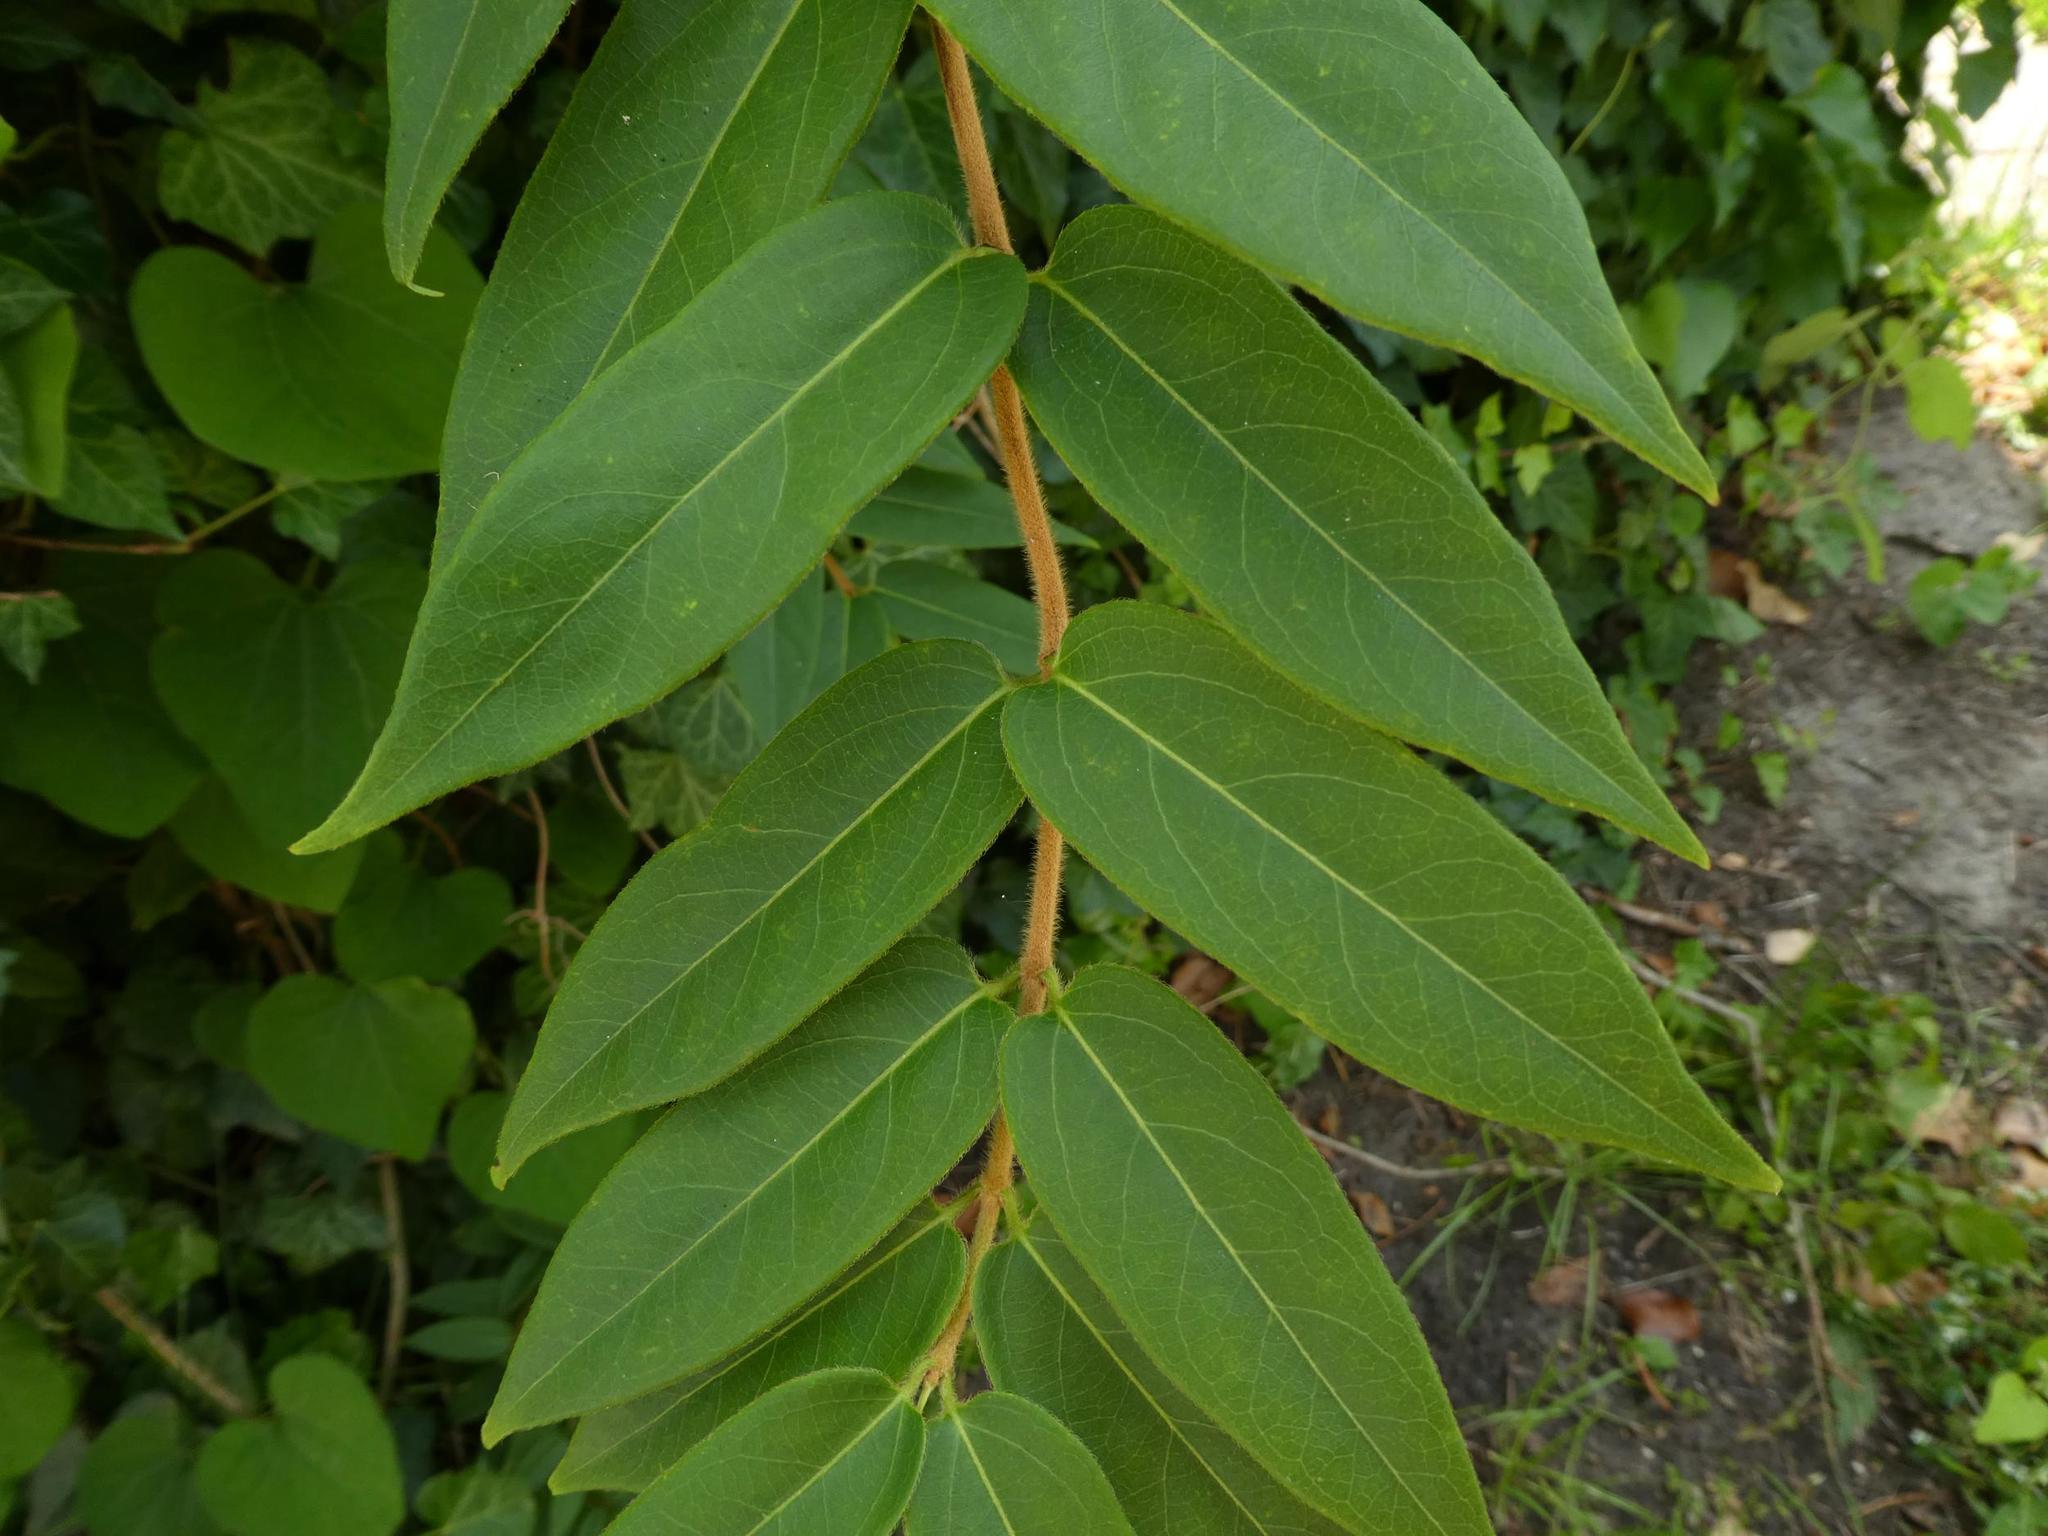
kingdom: Plantae
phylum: Tracheophyta
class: Magnoliopsida
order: Dipsacales
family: Caprifoliaceae
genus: Lonicera
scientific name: Lonicera acuminata
